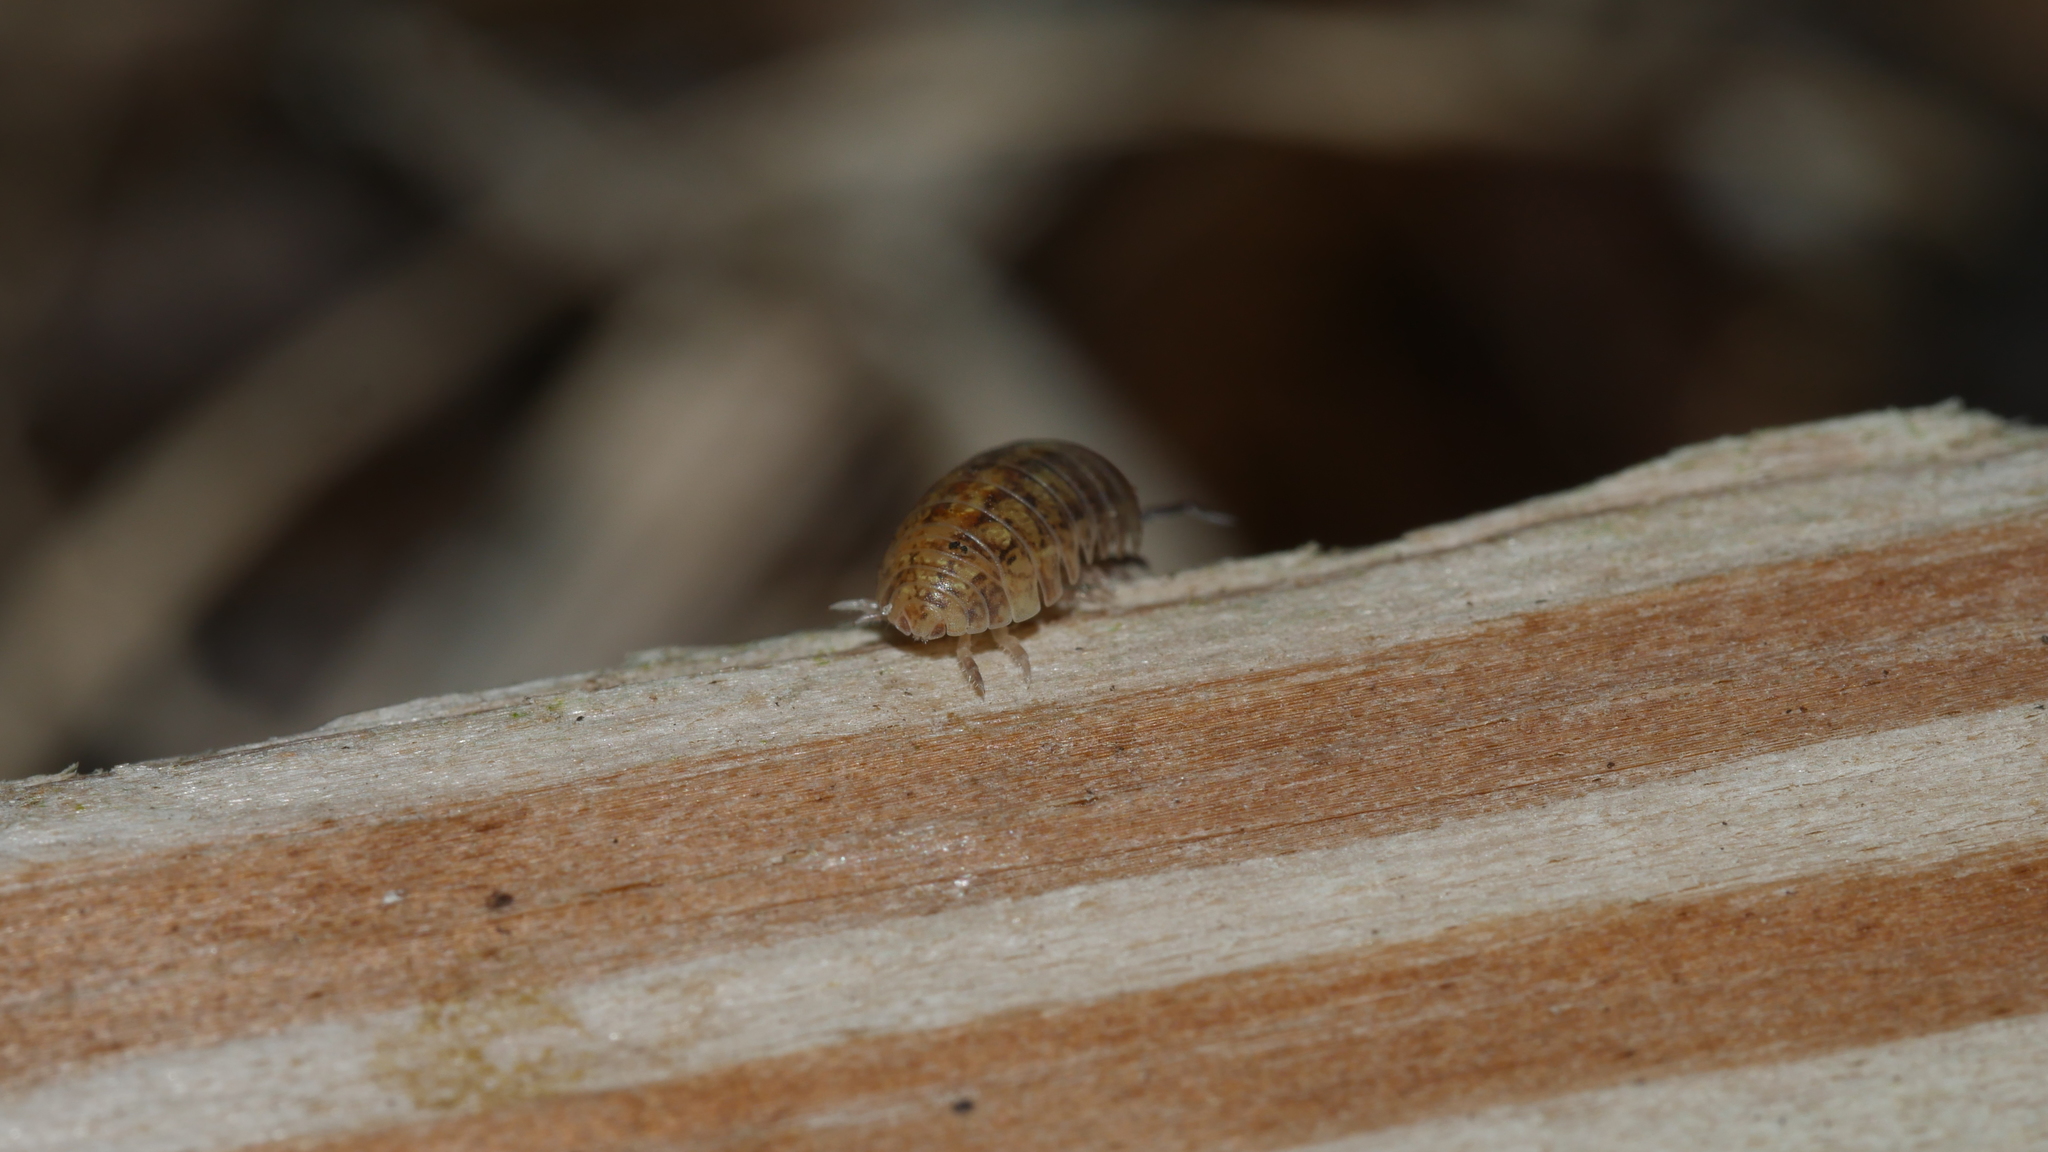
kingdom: Animalia
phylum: Arthropoda
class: Malacostraca
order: Isopoda
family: Armadillidiidae
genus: Armadillidium
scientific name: Armadillidium vulgare
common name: Common pill woodlouse
